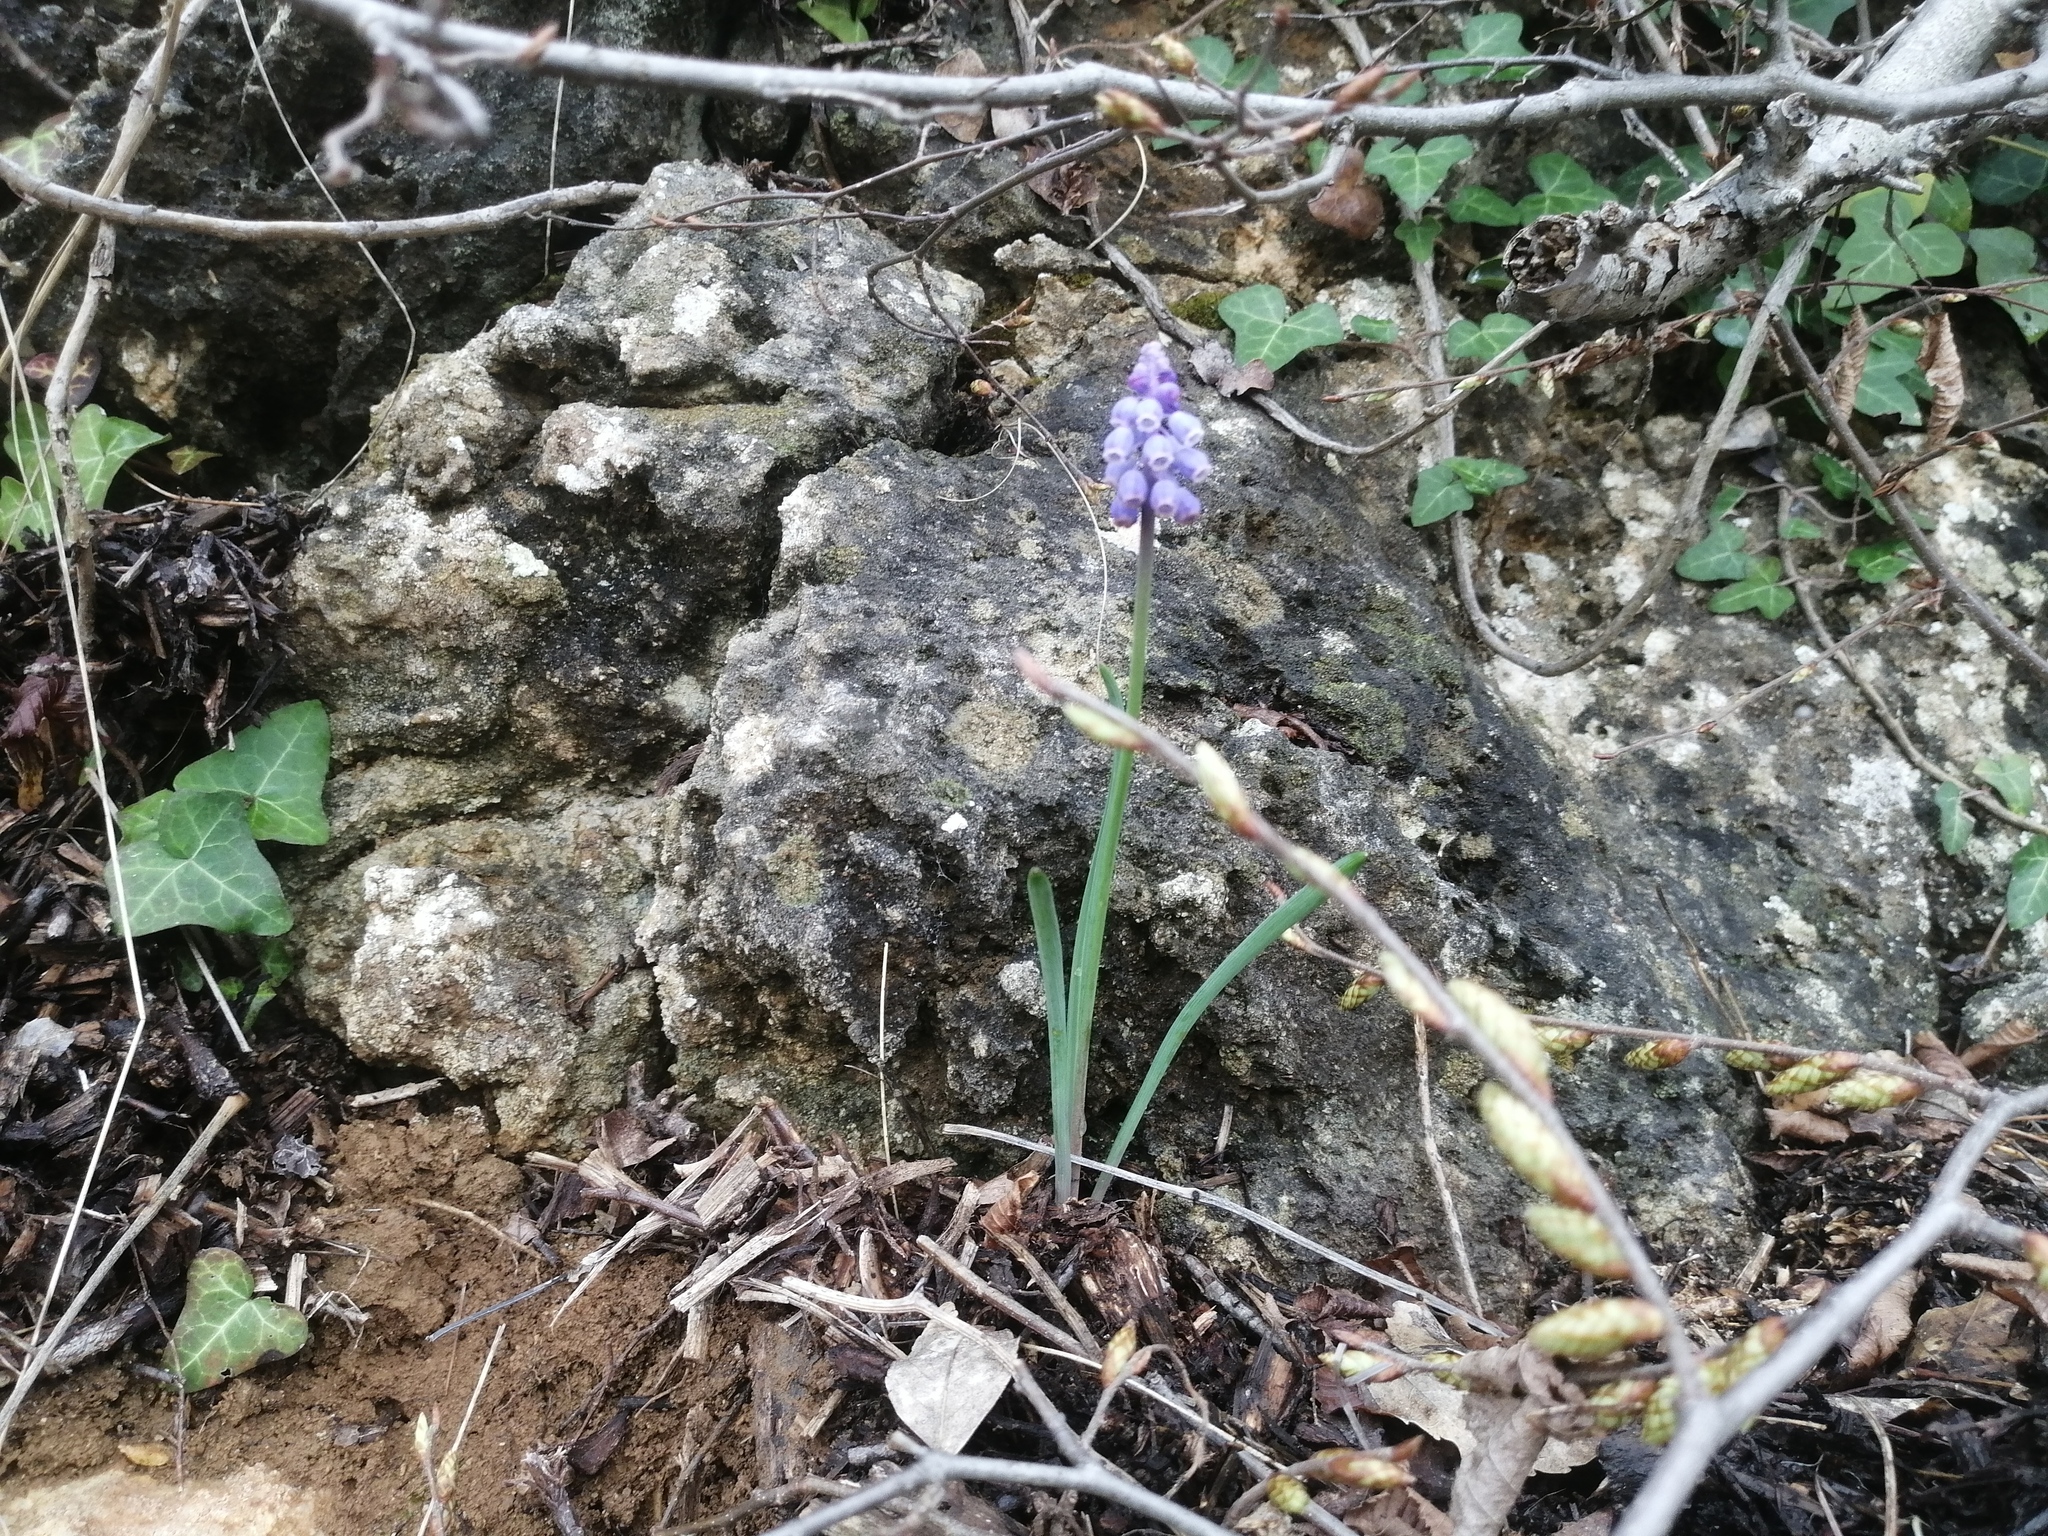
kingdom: Plantae
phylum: Tracheophyta
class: Liliopsida
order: Asparagales
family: Asparagaceae
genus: Muscari
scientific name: Muscari botryoides
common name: Compact grape-hyacinth
